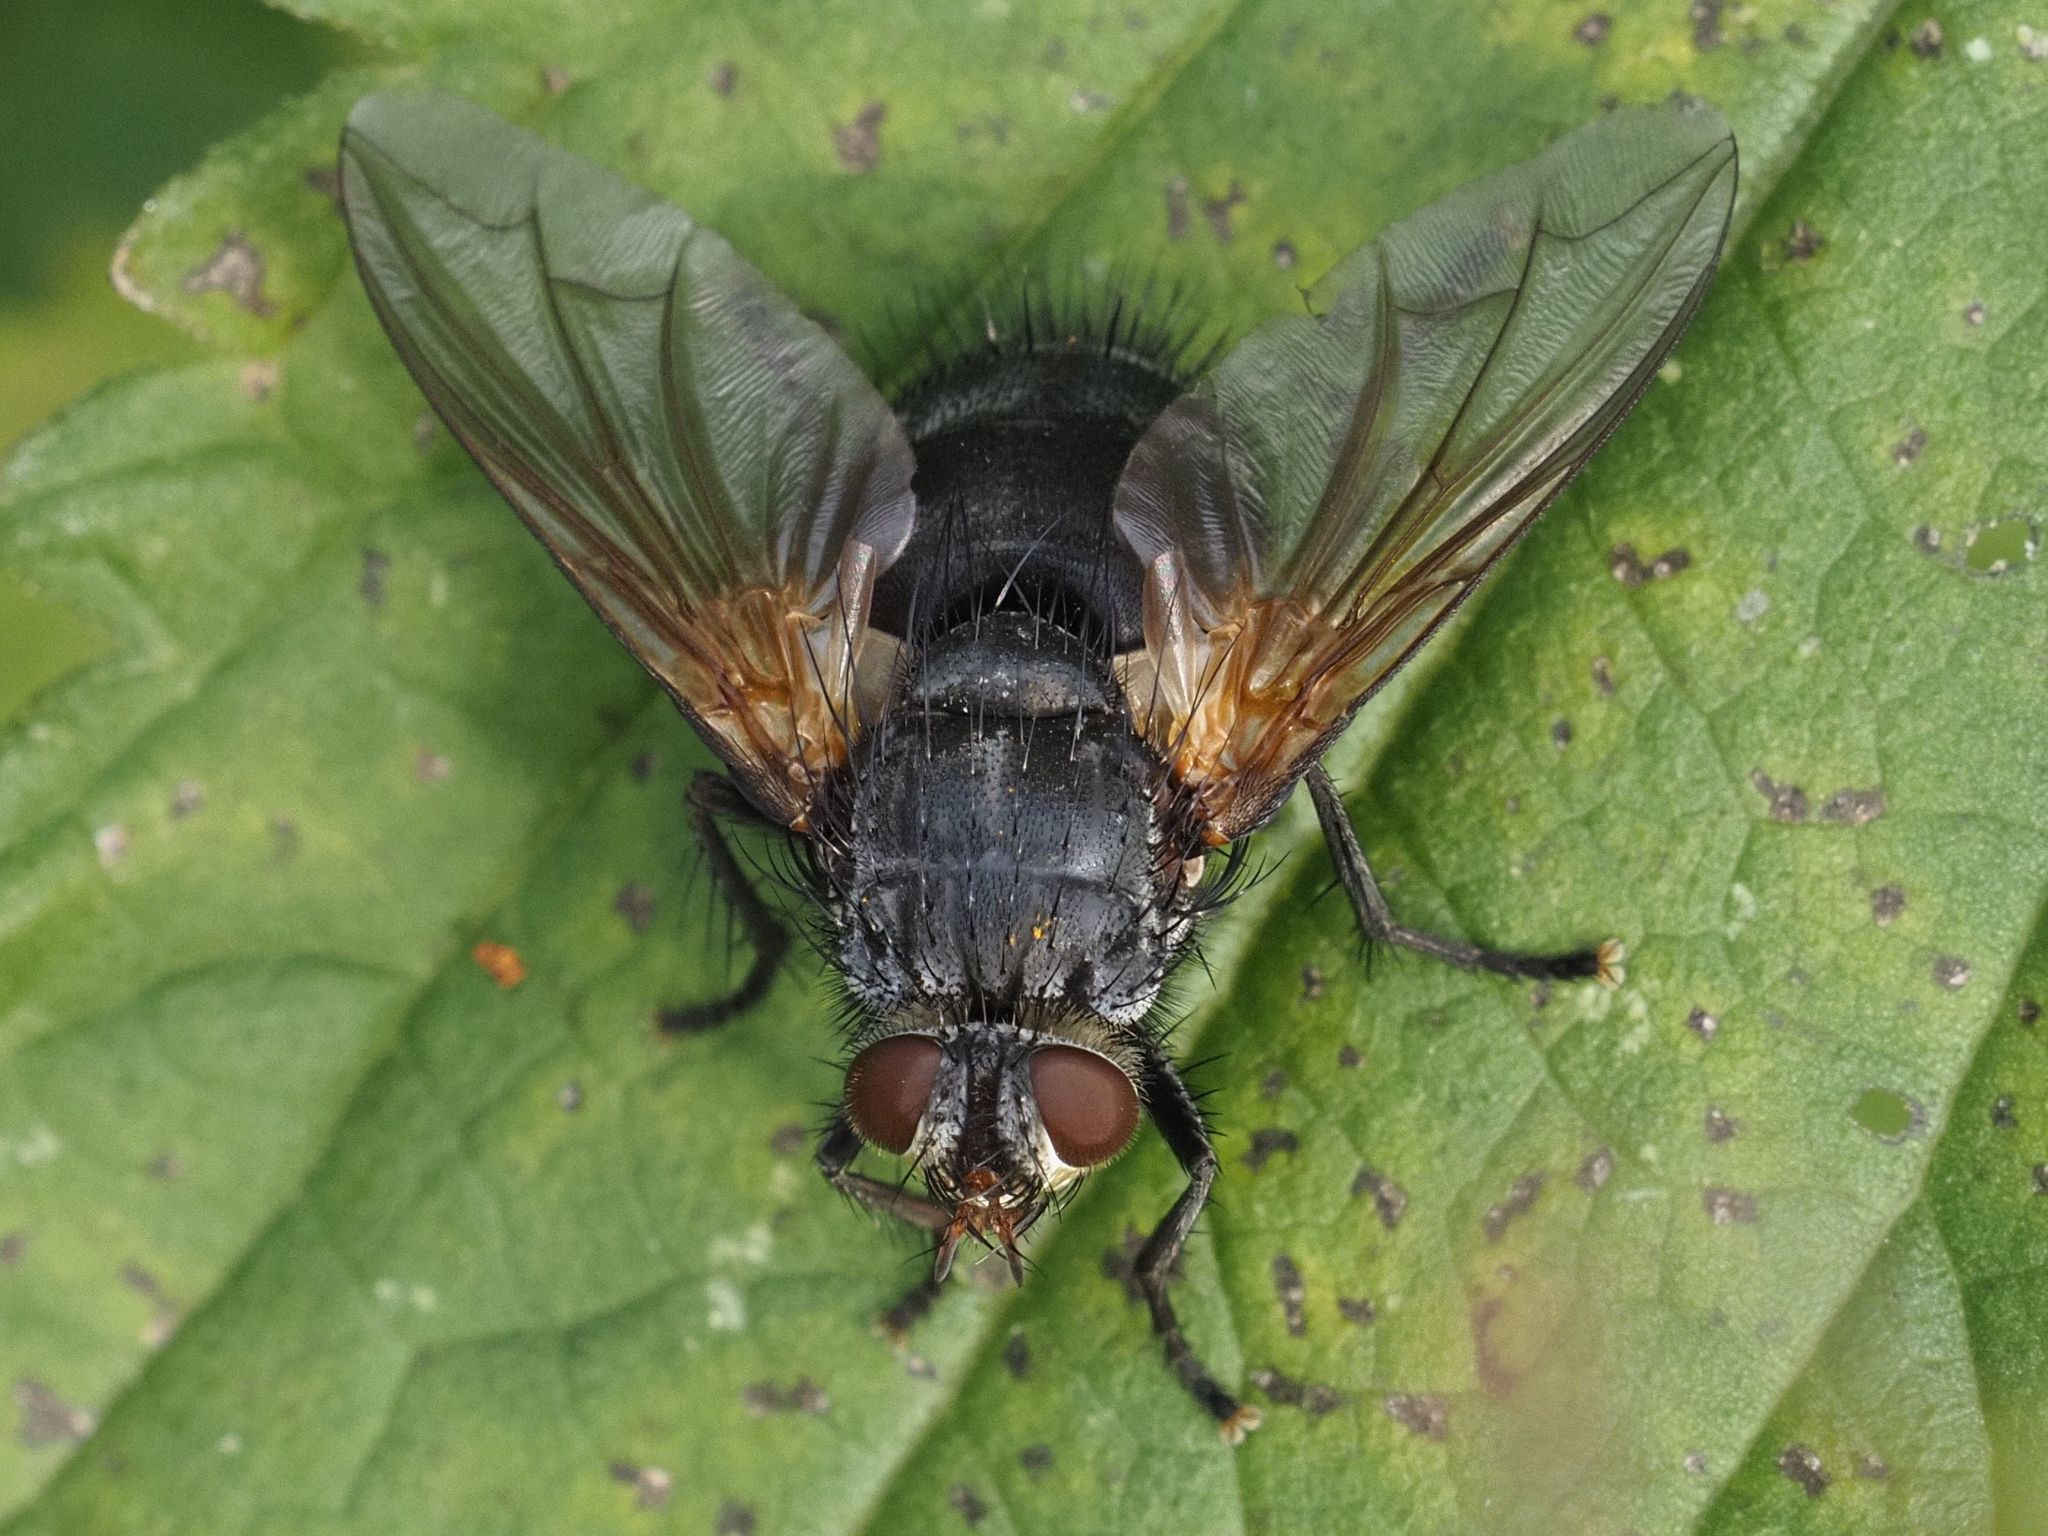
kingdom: Animalia
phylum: Arthropoda
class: Insecta
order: Diptera
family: Tachinidae
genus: Nemoraea
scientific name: Nemoraea pellucida
